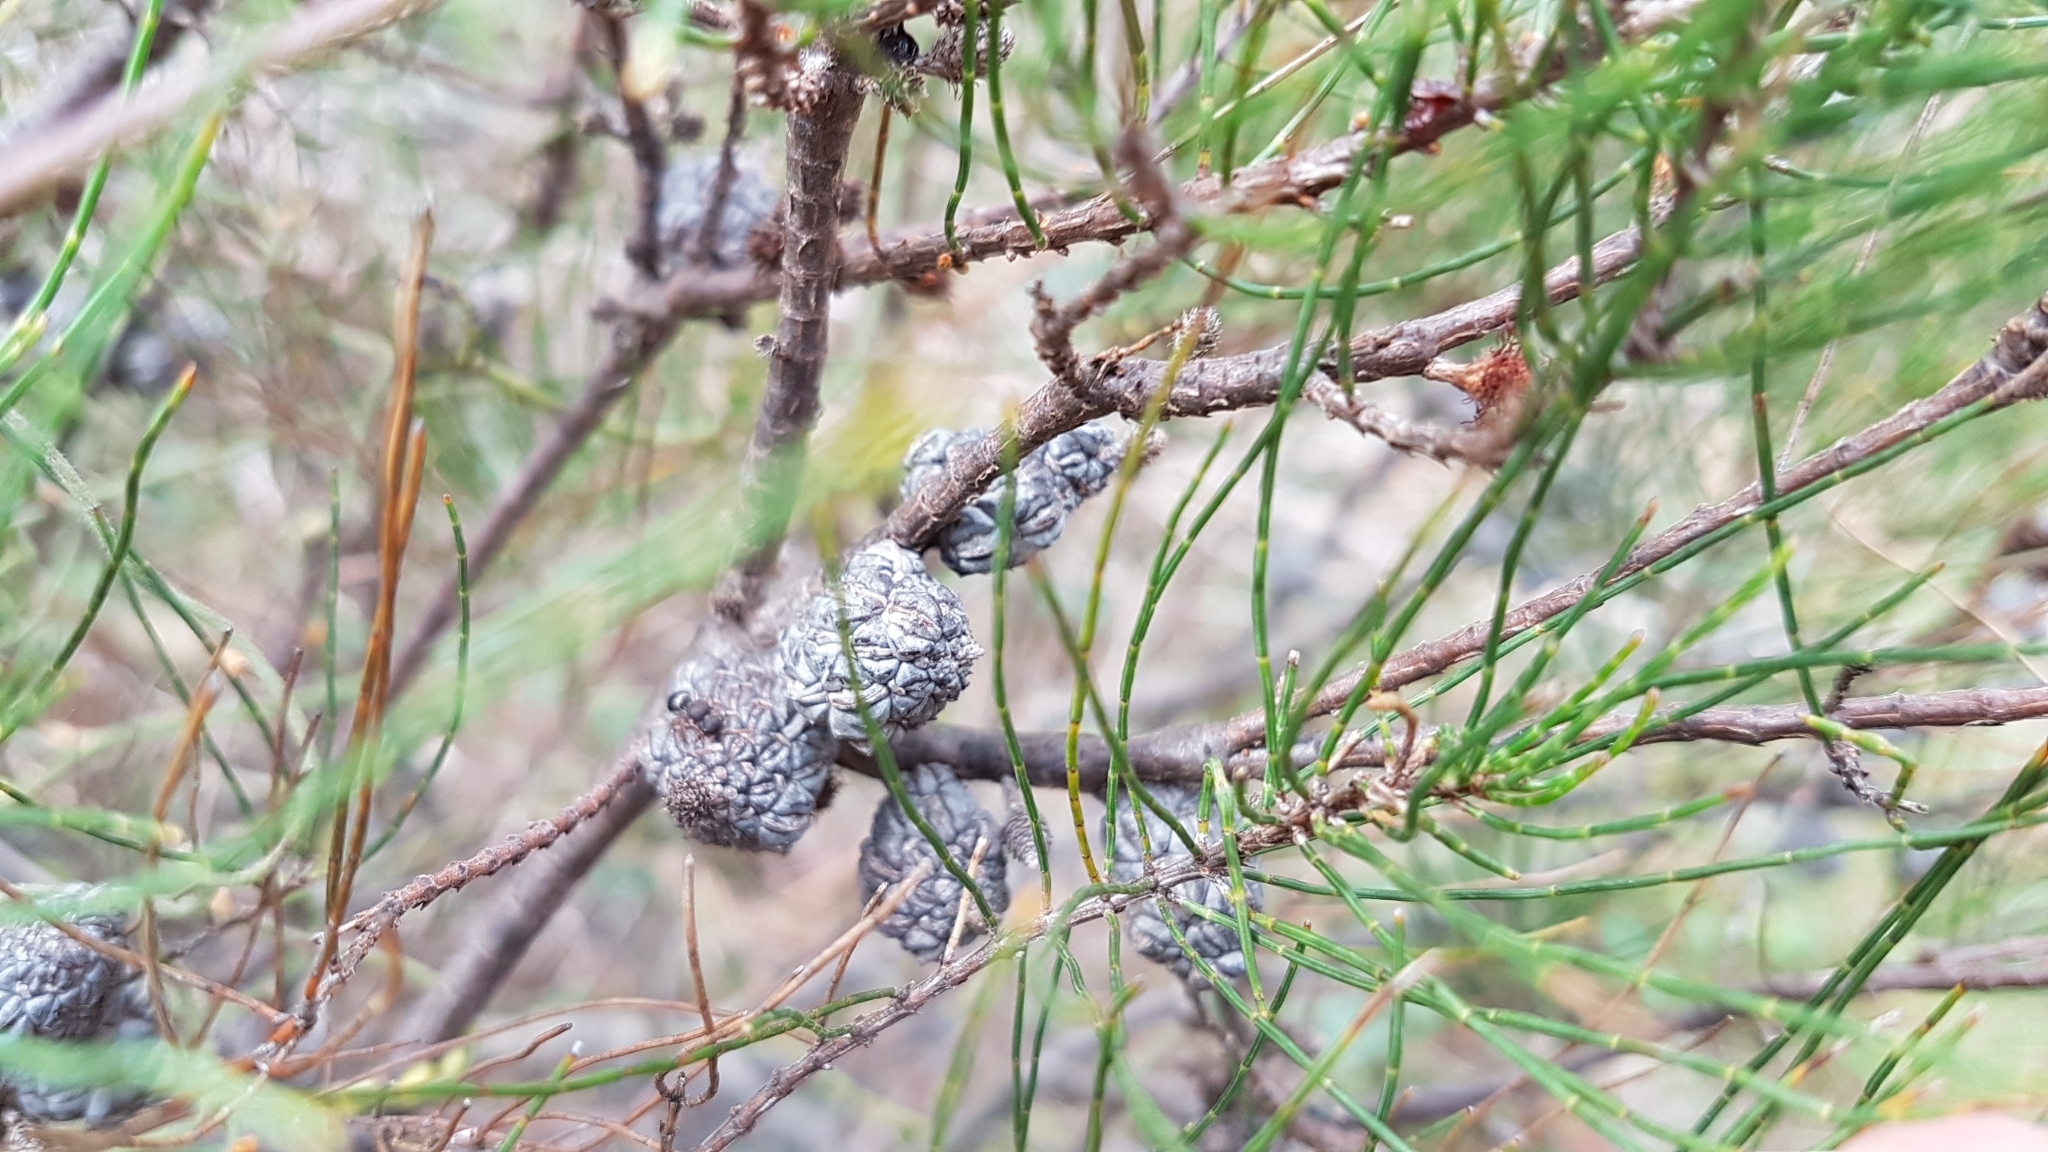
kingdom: Plantae
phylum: Tracheophyta
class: Magnoliopsida
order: Fagales
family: Casuarinaceae
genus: Allocasuarina
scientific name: Allocasuarina misera
